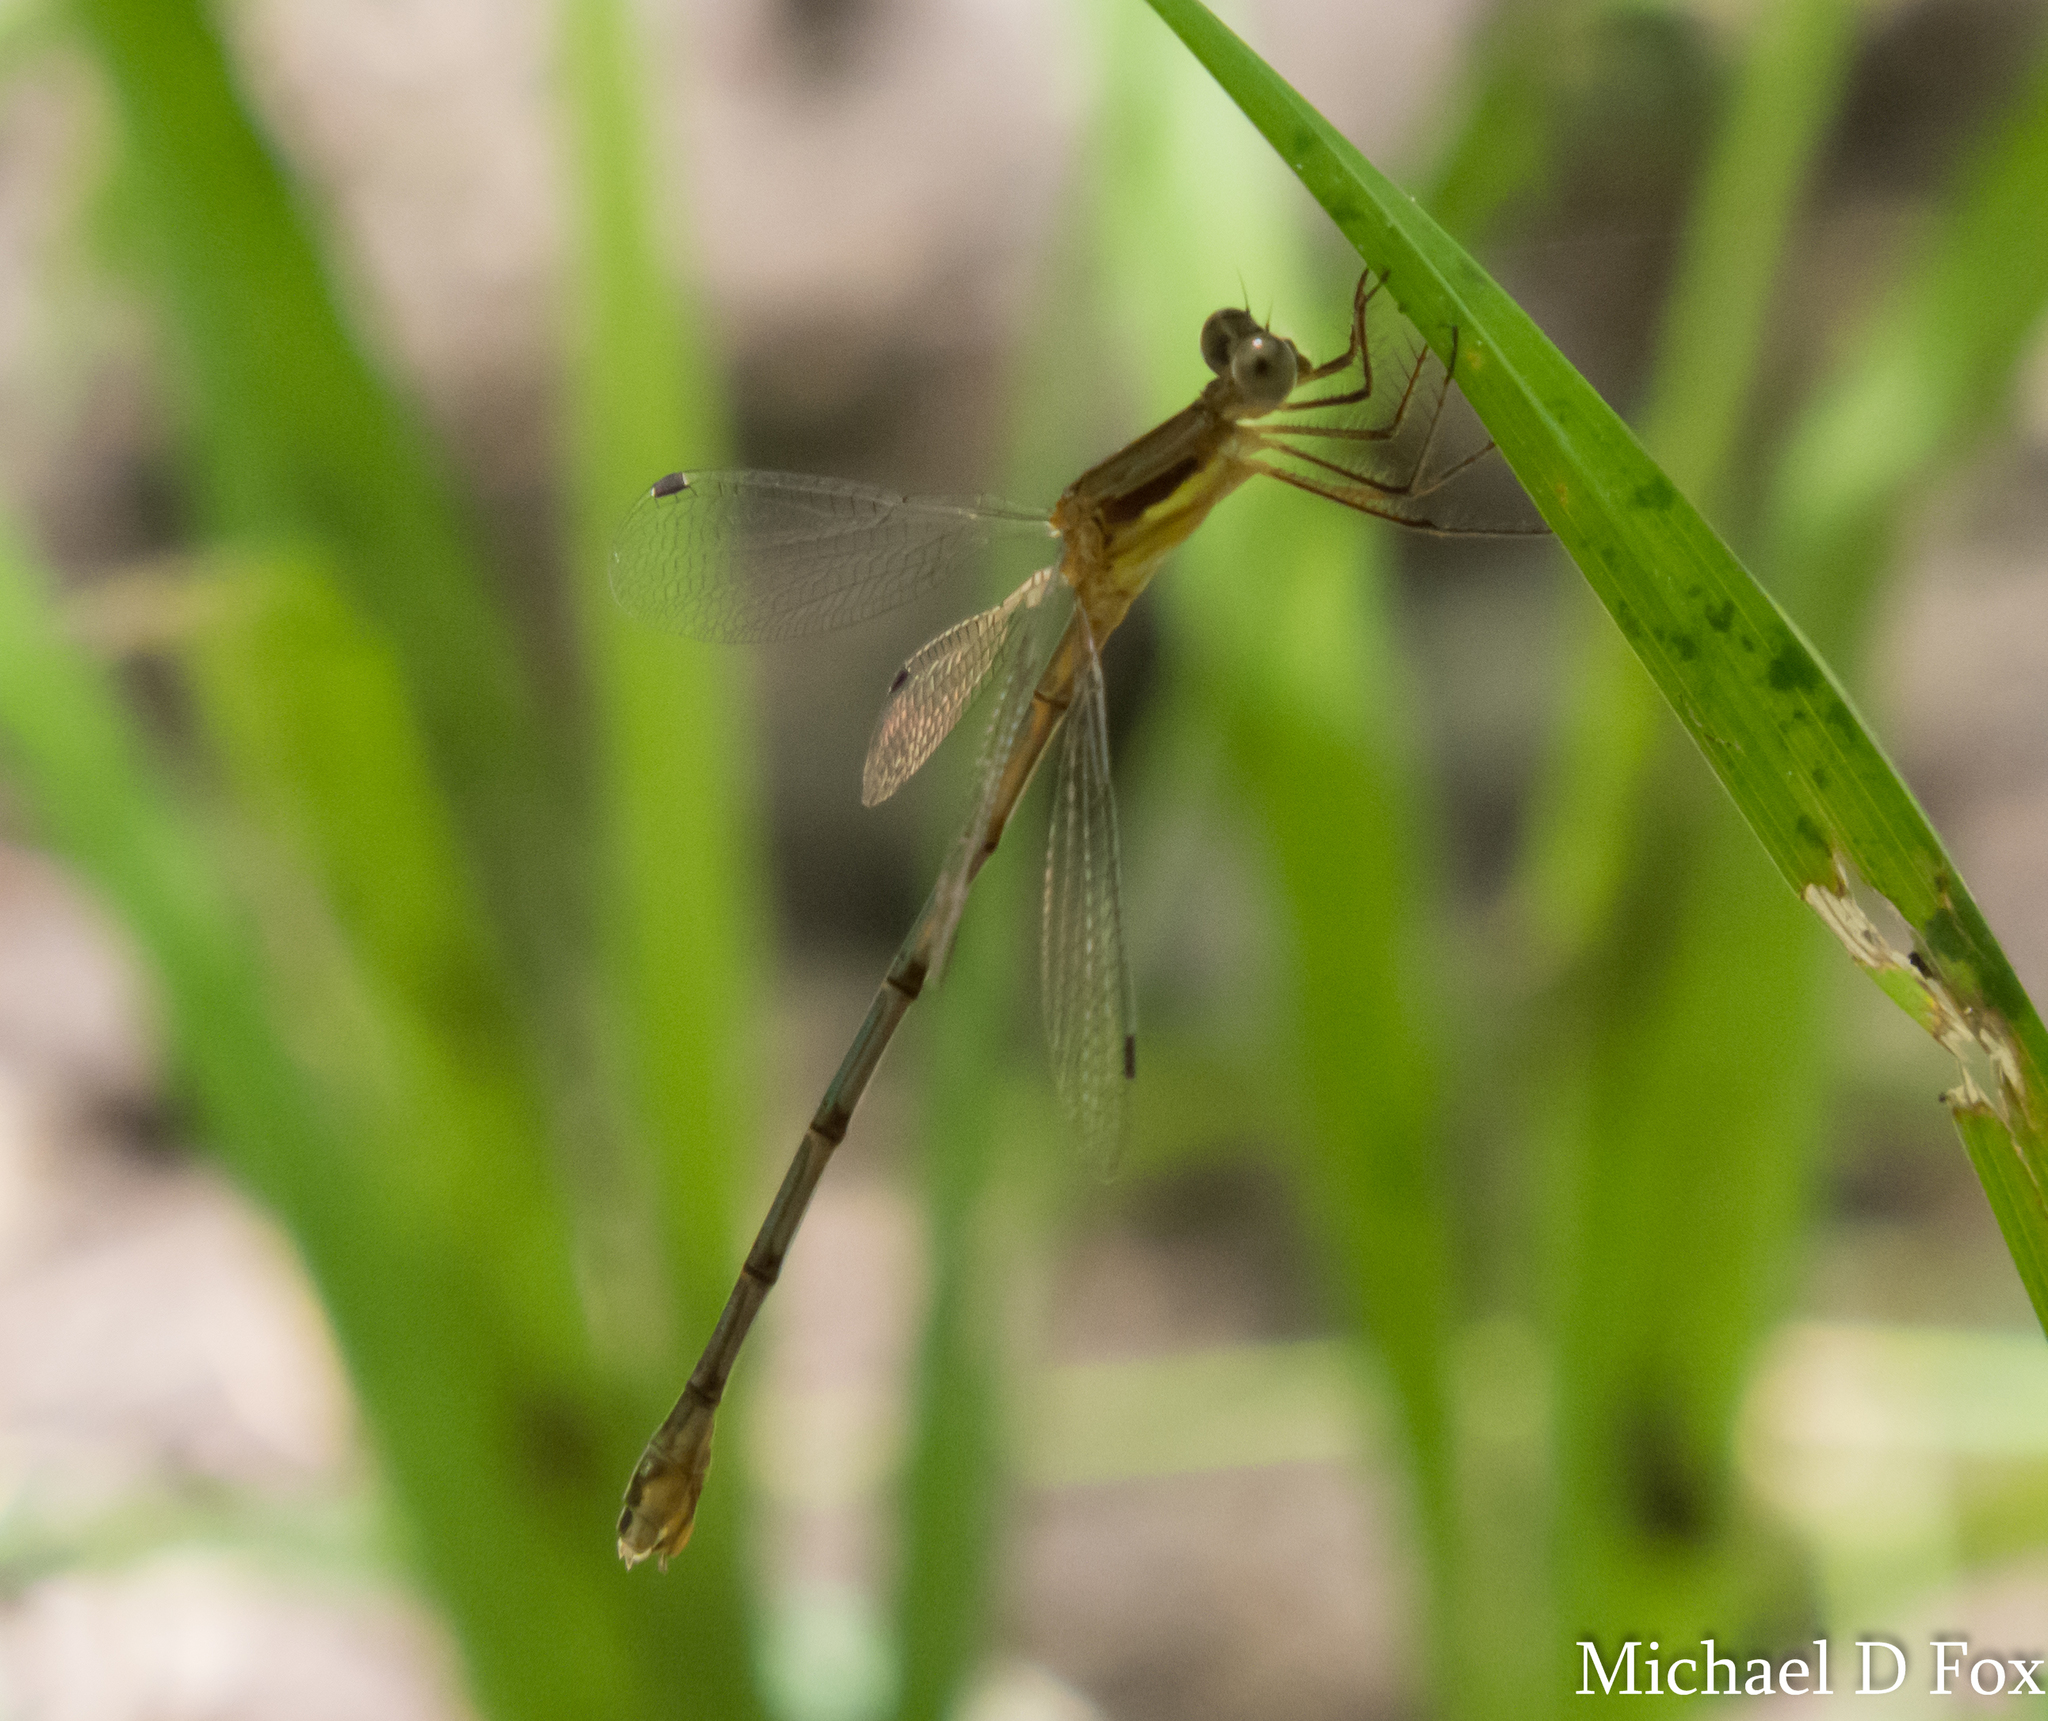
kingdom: Animalia
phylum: Arthropoda
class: Insecta
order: Odonata
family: Lestidae
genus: Lestes
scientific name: Lestes australis
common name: Southern spreadwing
